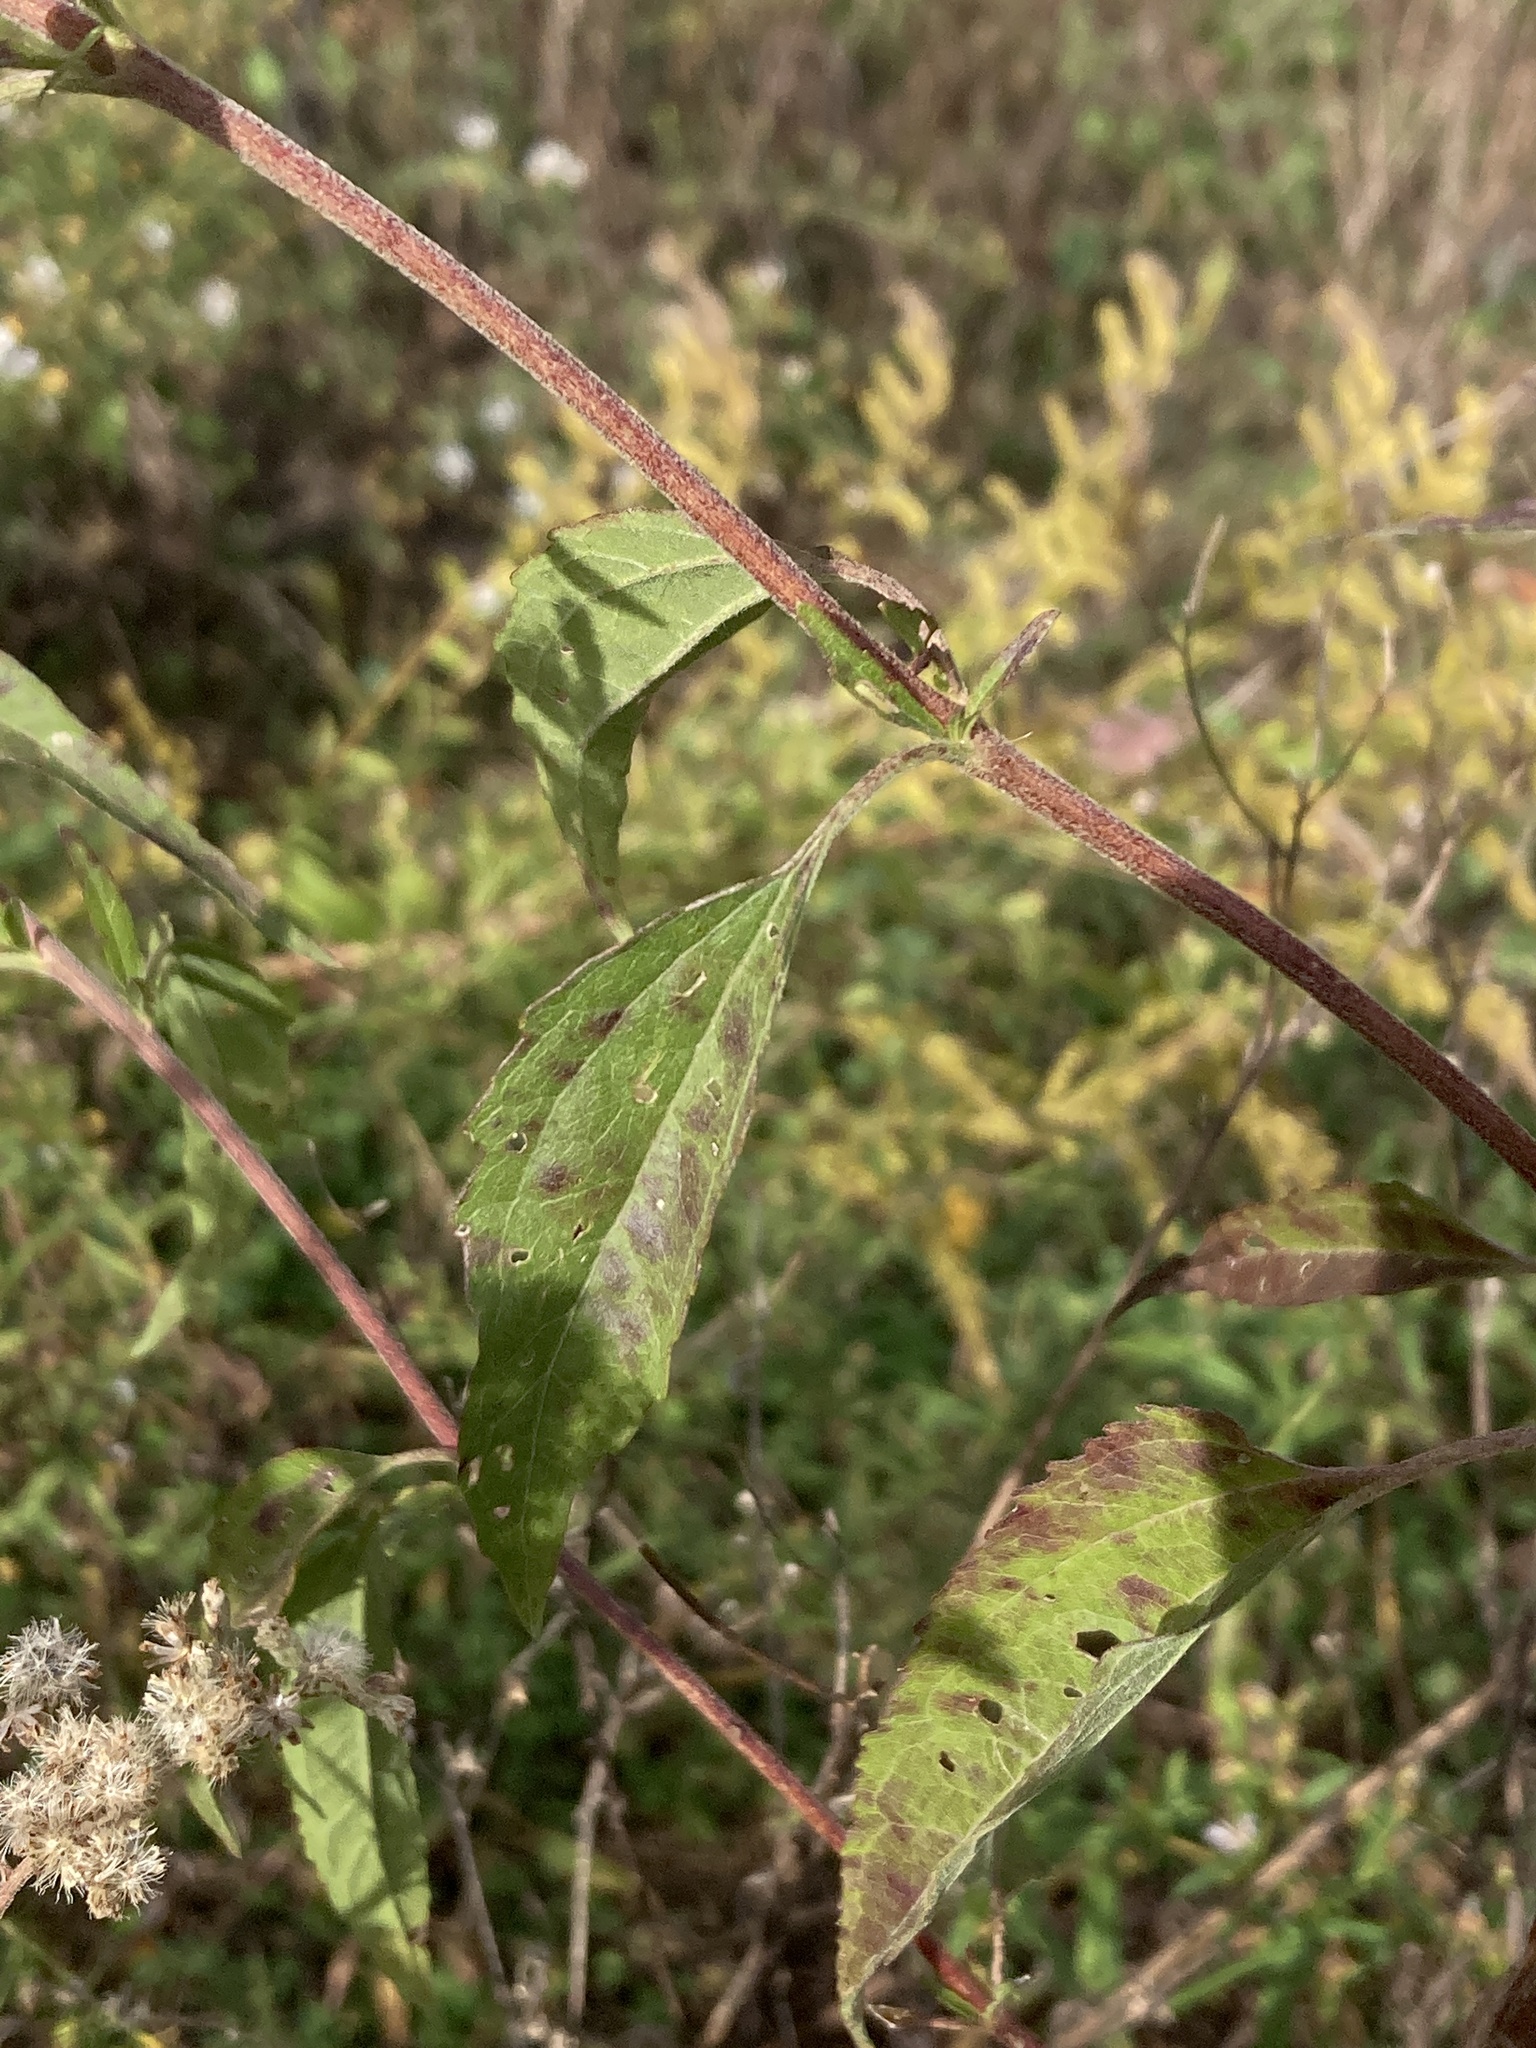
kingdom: Plantae
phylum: Tracheophyta
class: Magnoliopsida
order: Asterales
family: Asteraceae
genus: Eupatorium
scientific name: Eupatorium serotinum
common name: Late boneset
